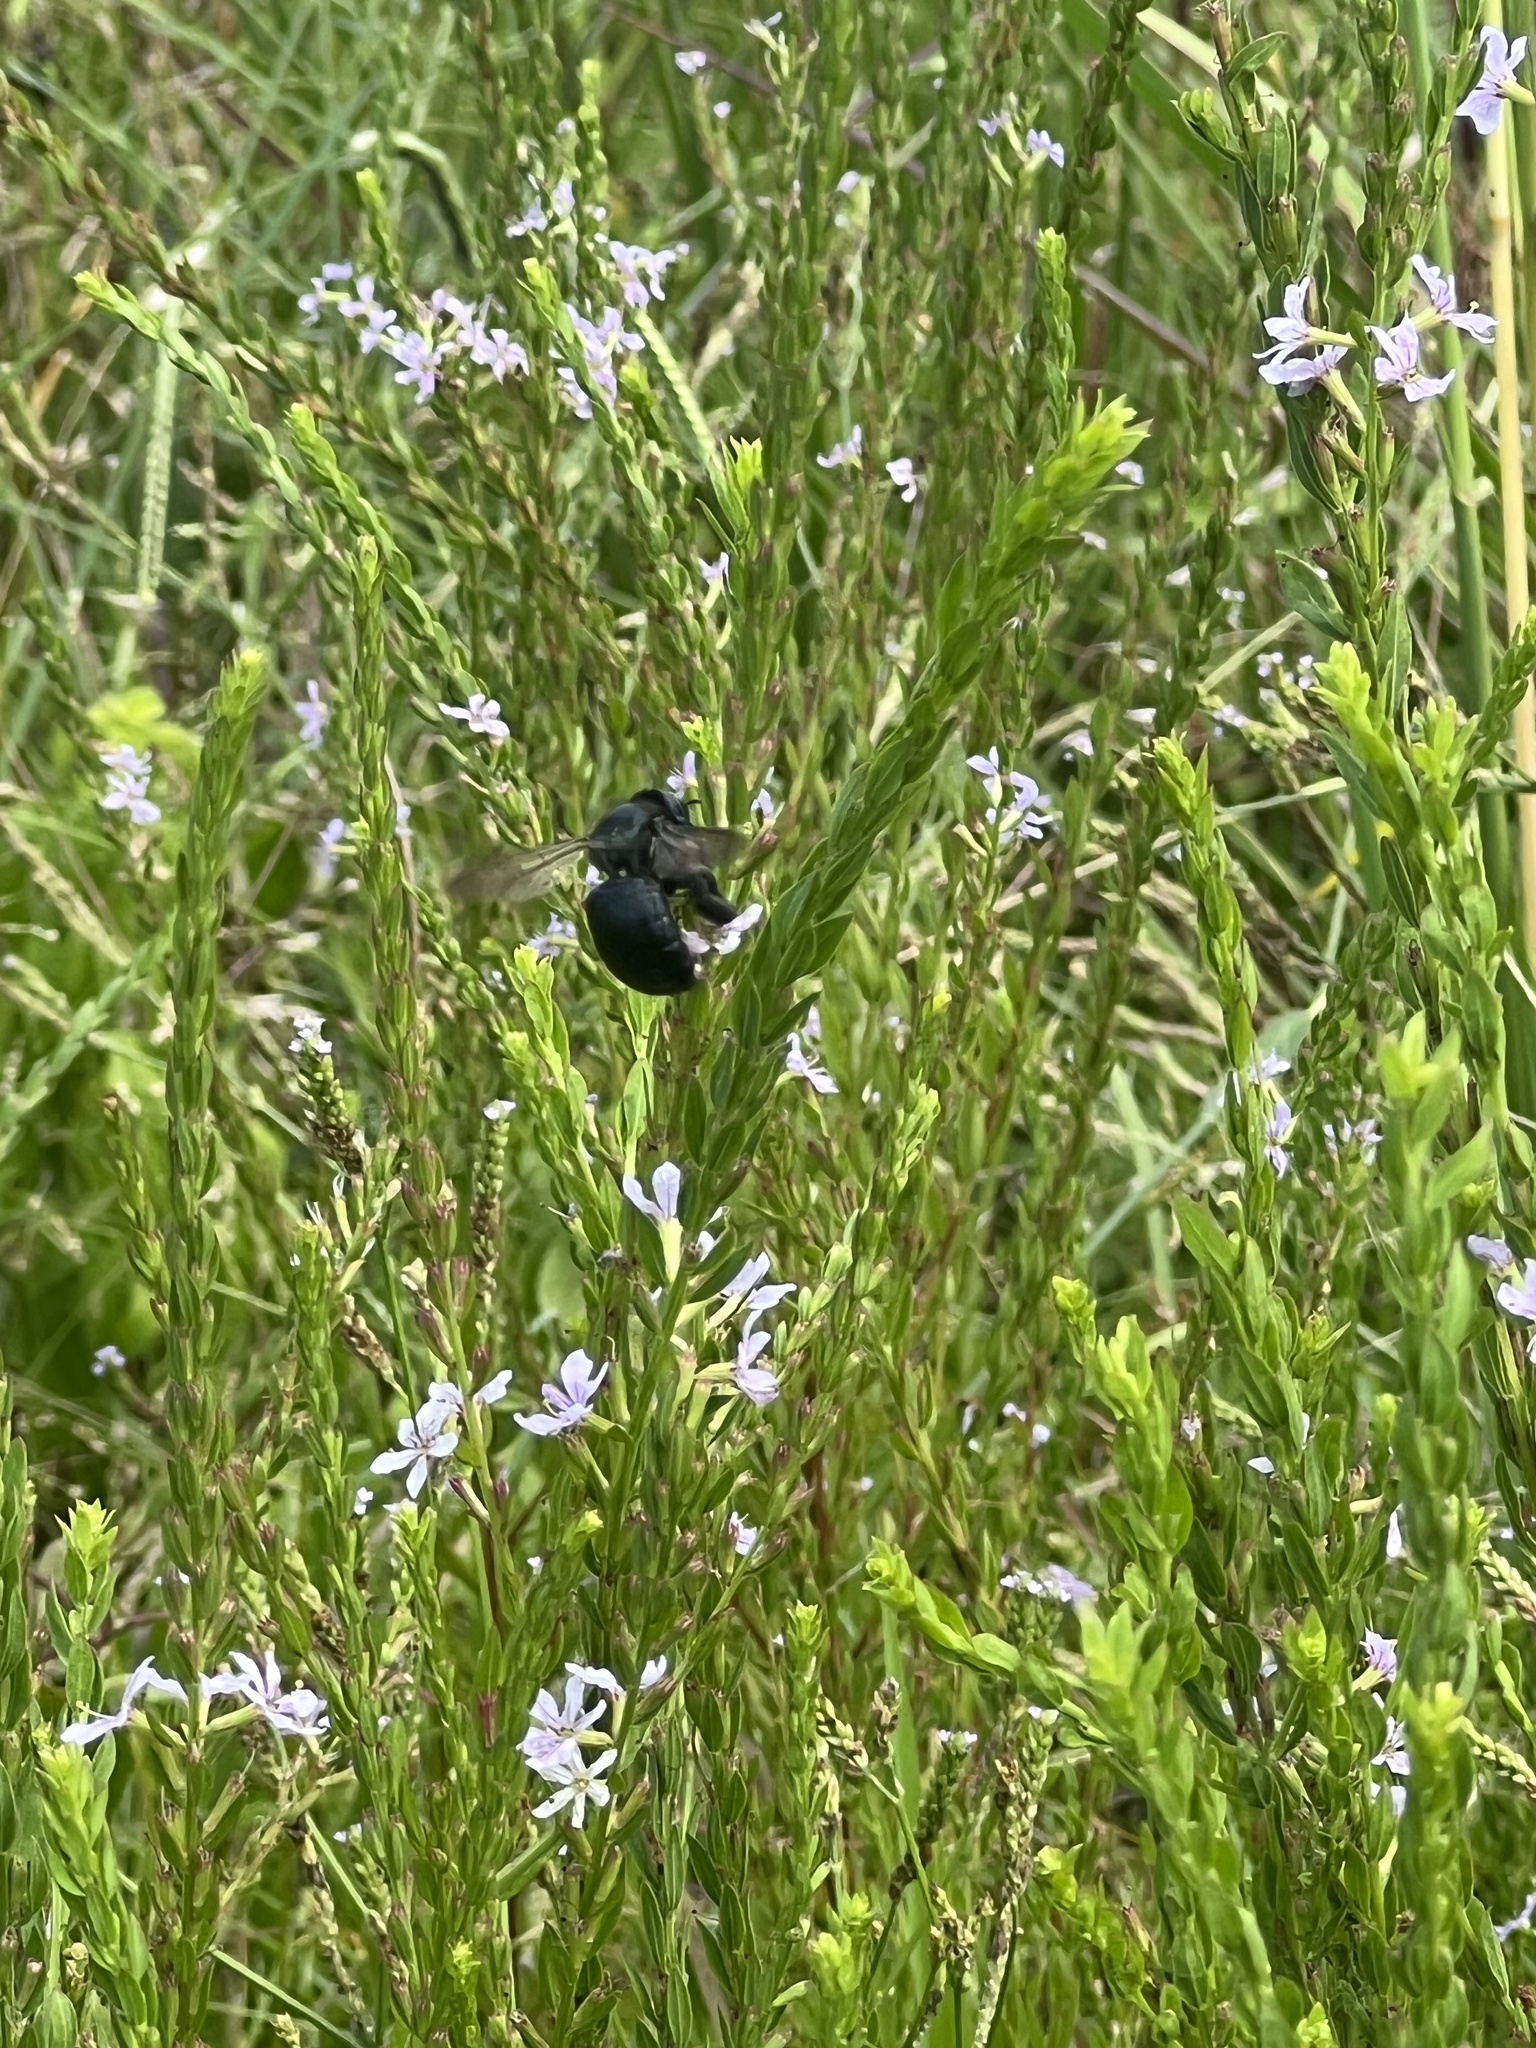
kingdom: Animalia
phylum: Arthropoda
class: Insecta
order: Hymenoptera
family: Apidae
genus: Xylocopa
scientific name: Xylocopa micans
